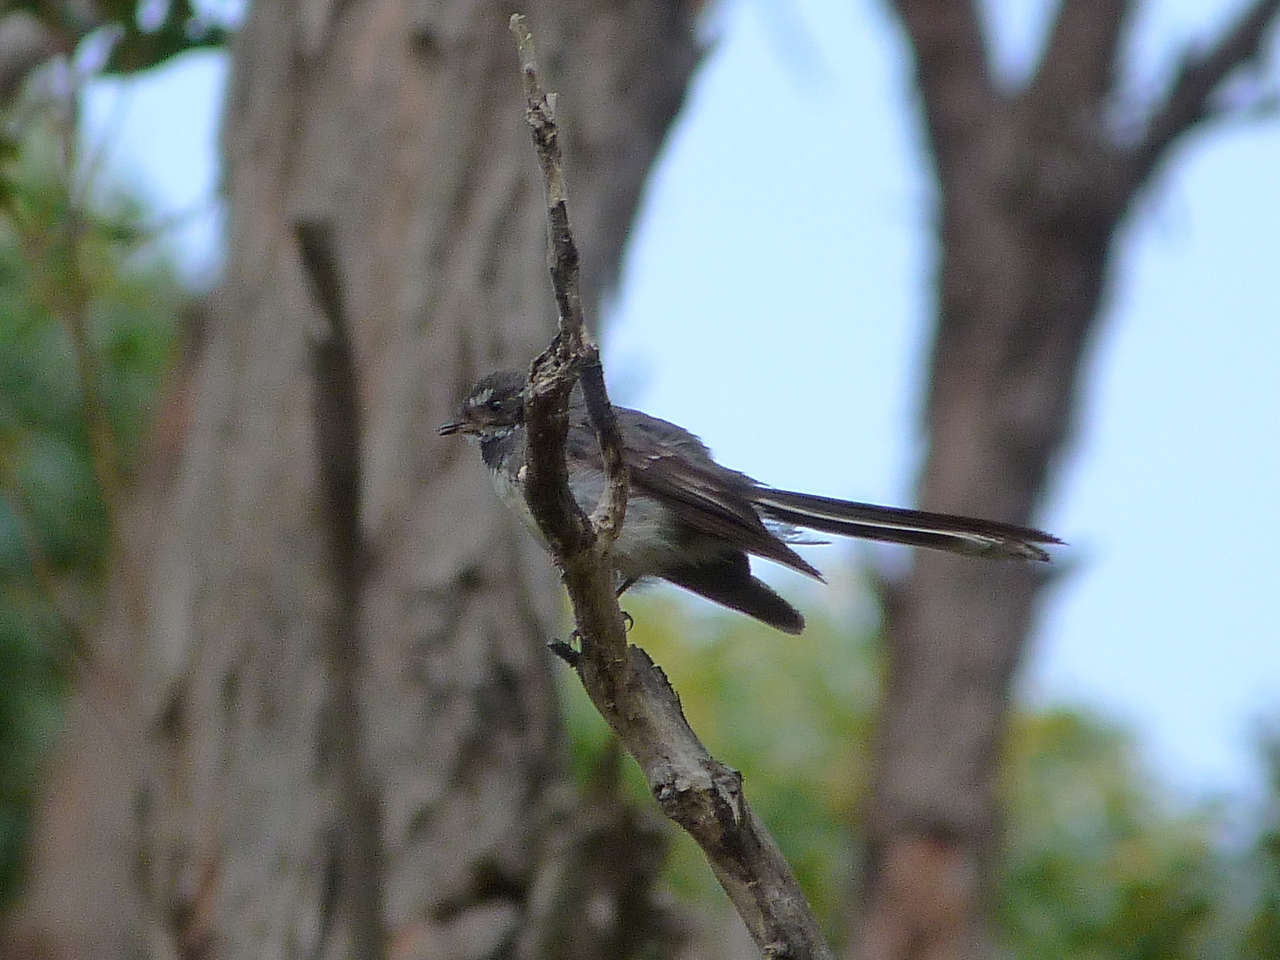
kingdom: Animalia
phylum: Chordata
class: Aves
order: Passeriformes
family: Rhipiduridae
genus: Rhipidura
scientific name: Rhipidura albiscapa
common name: Grey fantail
